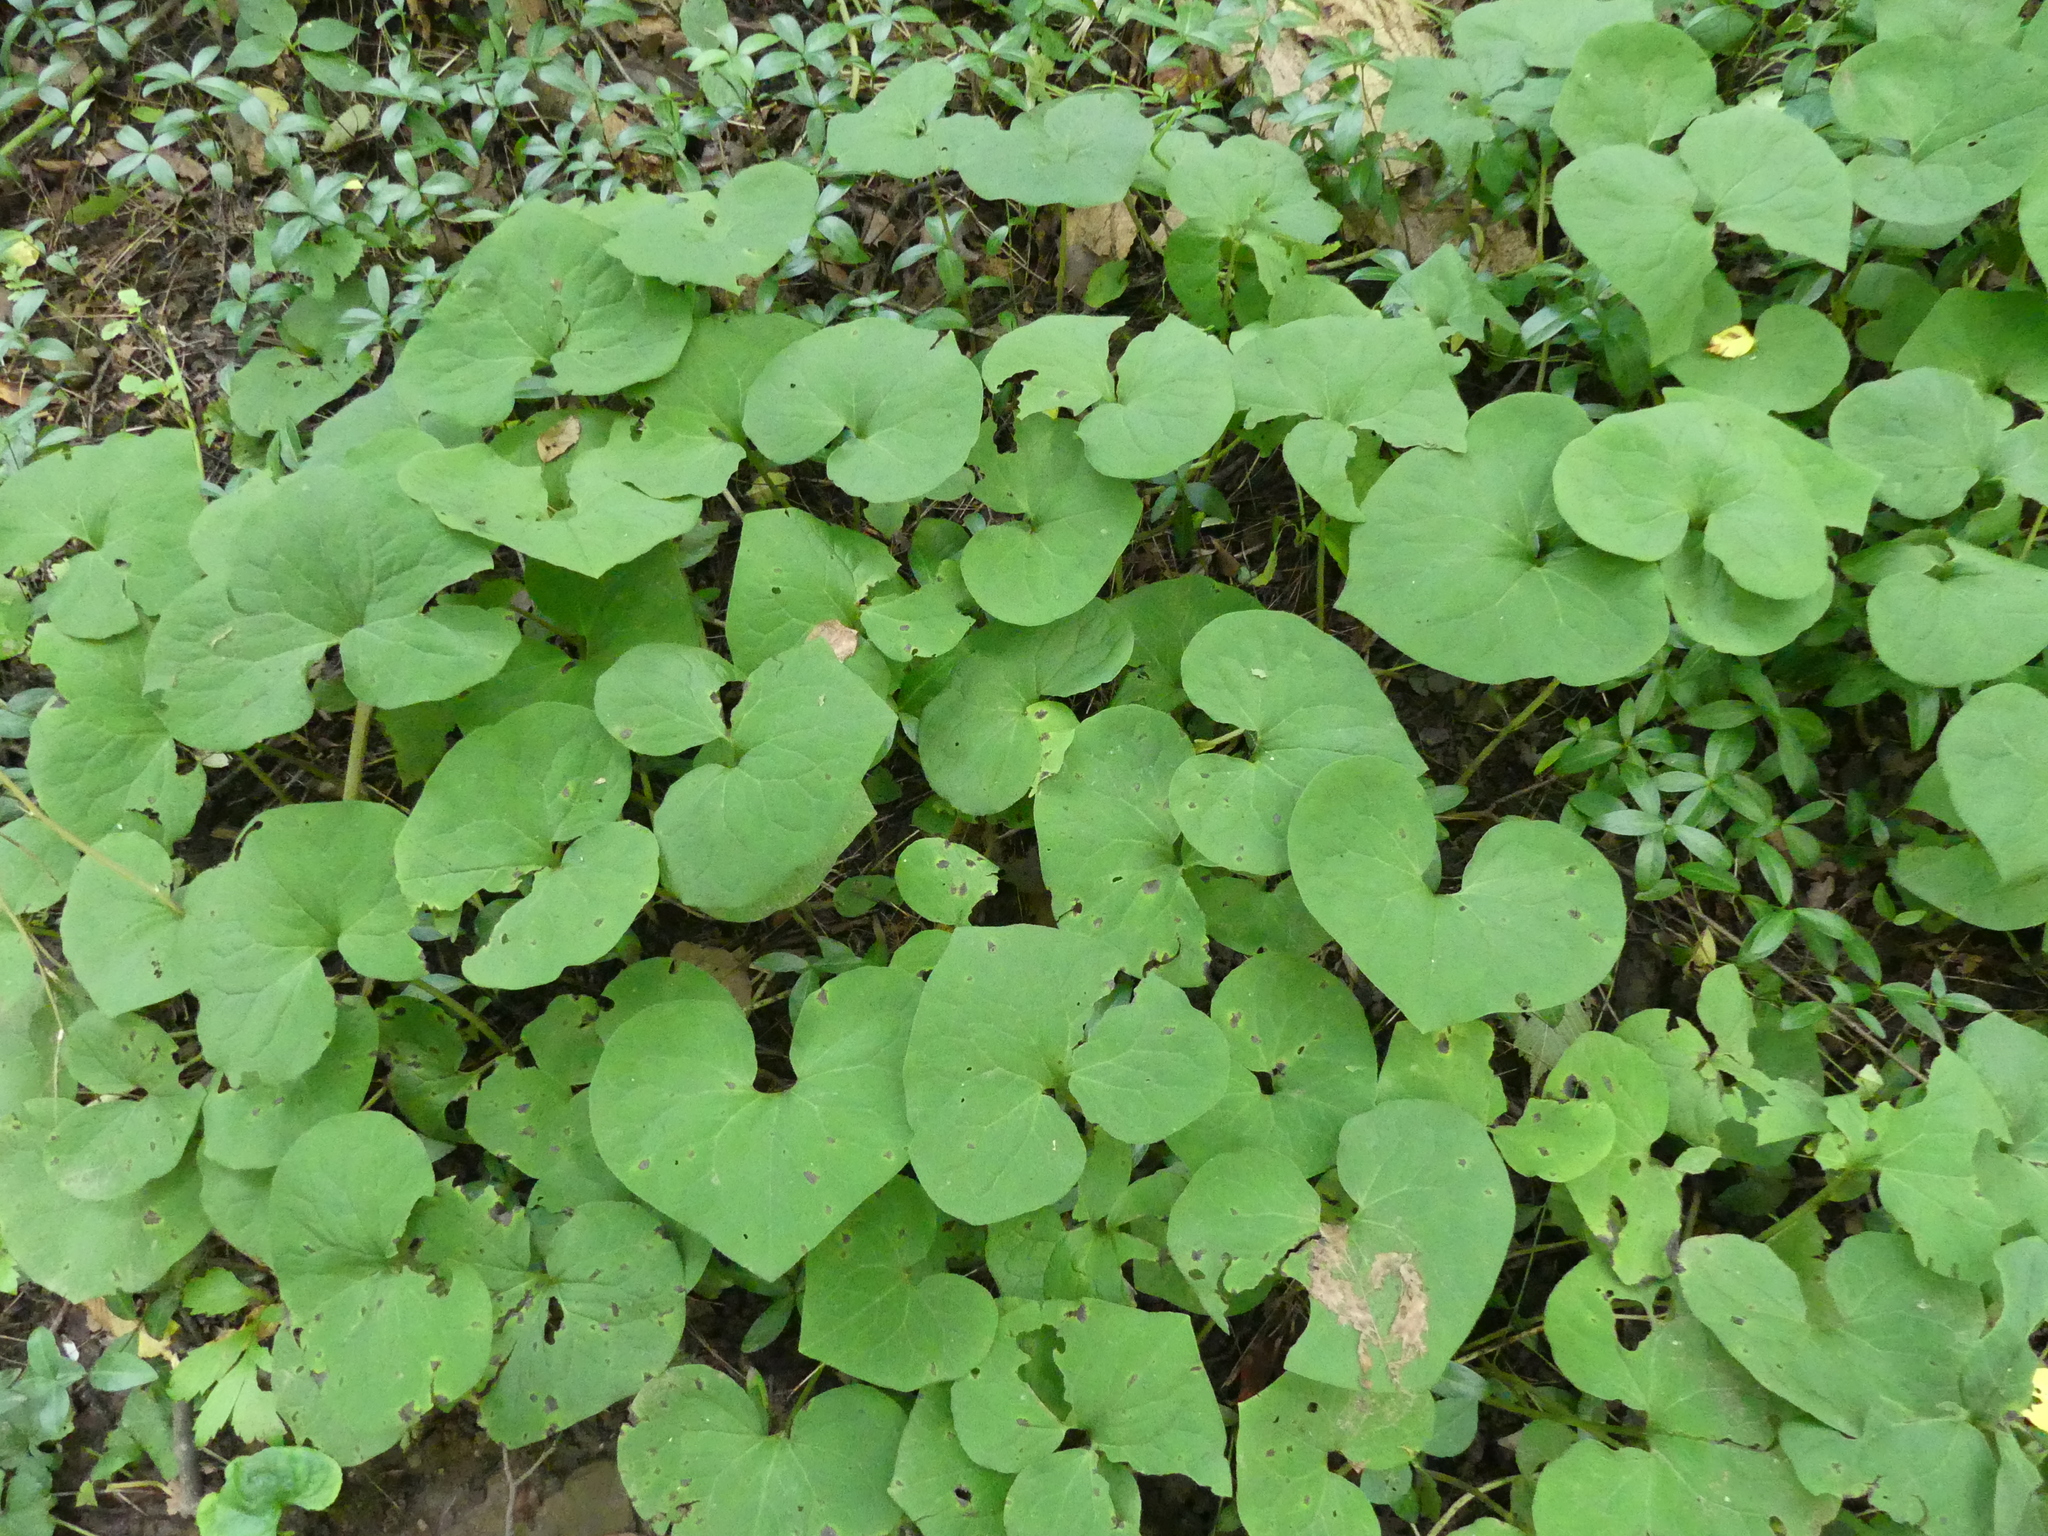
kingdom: Plantae
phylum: Tracheophyta
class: Magnoliopsida
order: Piperales
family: Aristolochiaceae
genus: Asarum
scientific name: Asarum canadense
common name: Wild ginger
